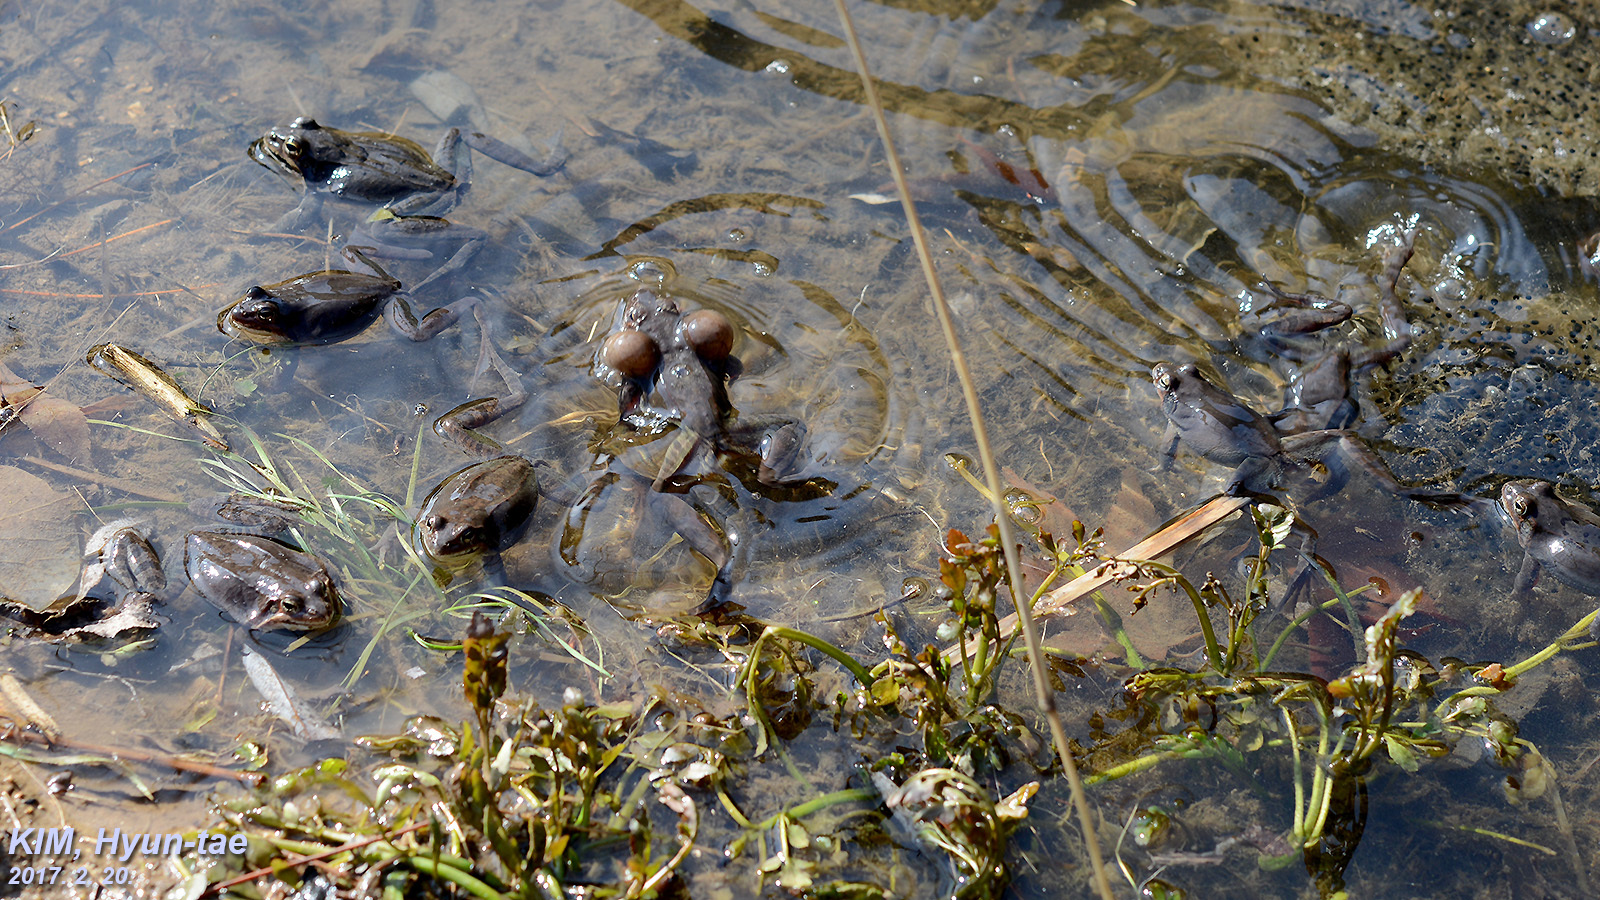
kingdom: Animalia
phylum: Chordata
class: Amphibia
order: Anura
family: Ranidae
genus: Rana
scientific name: Rana uenoi
